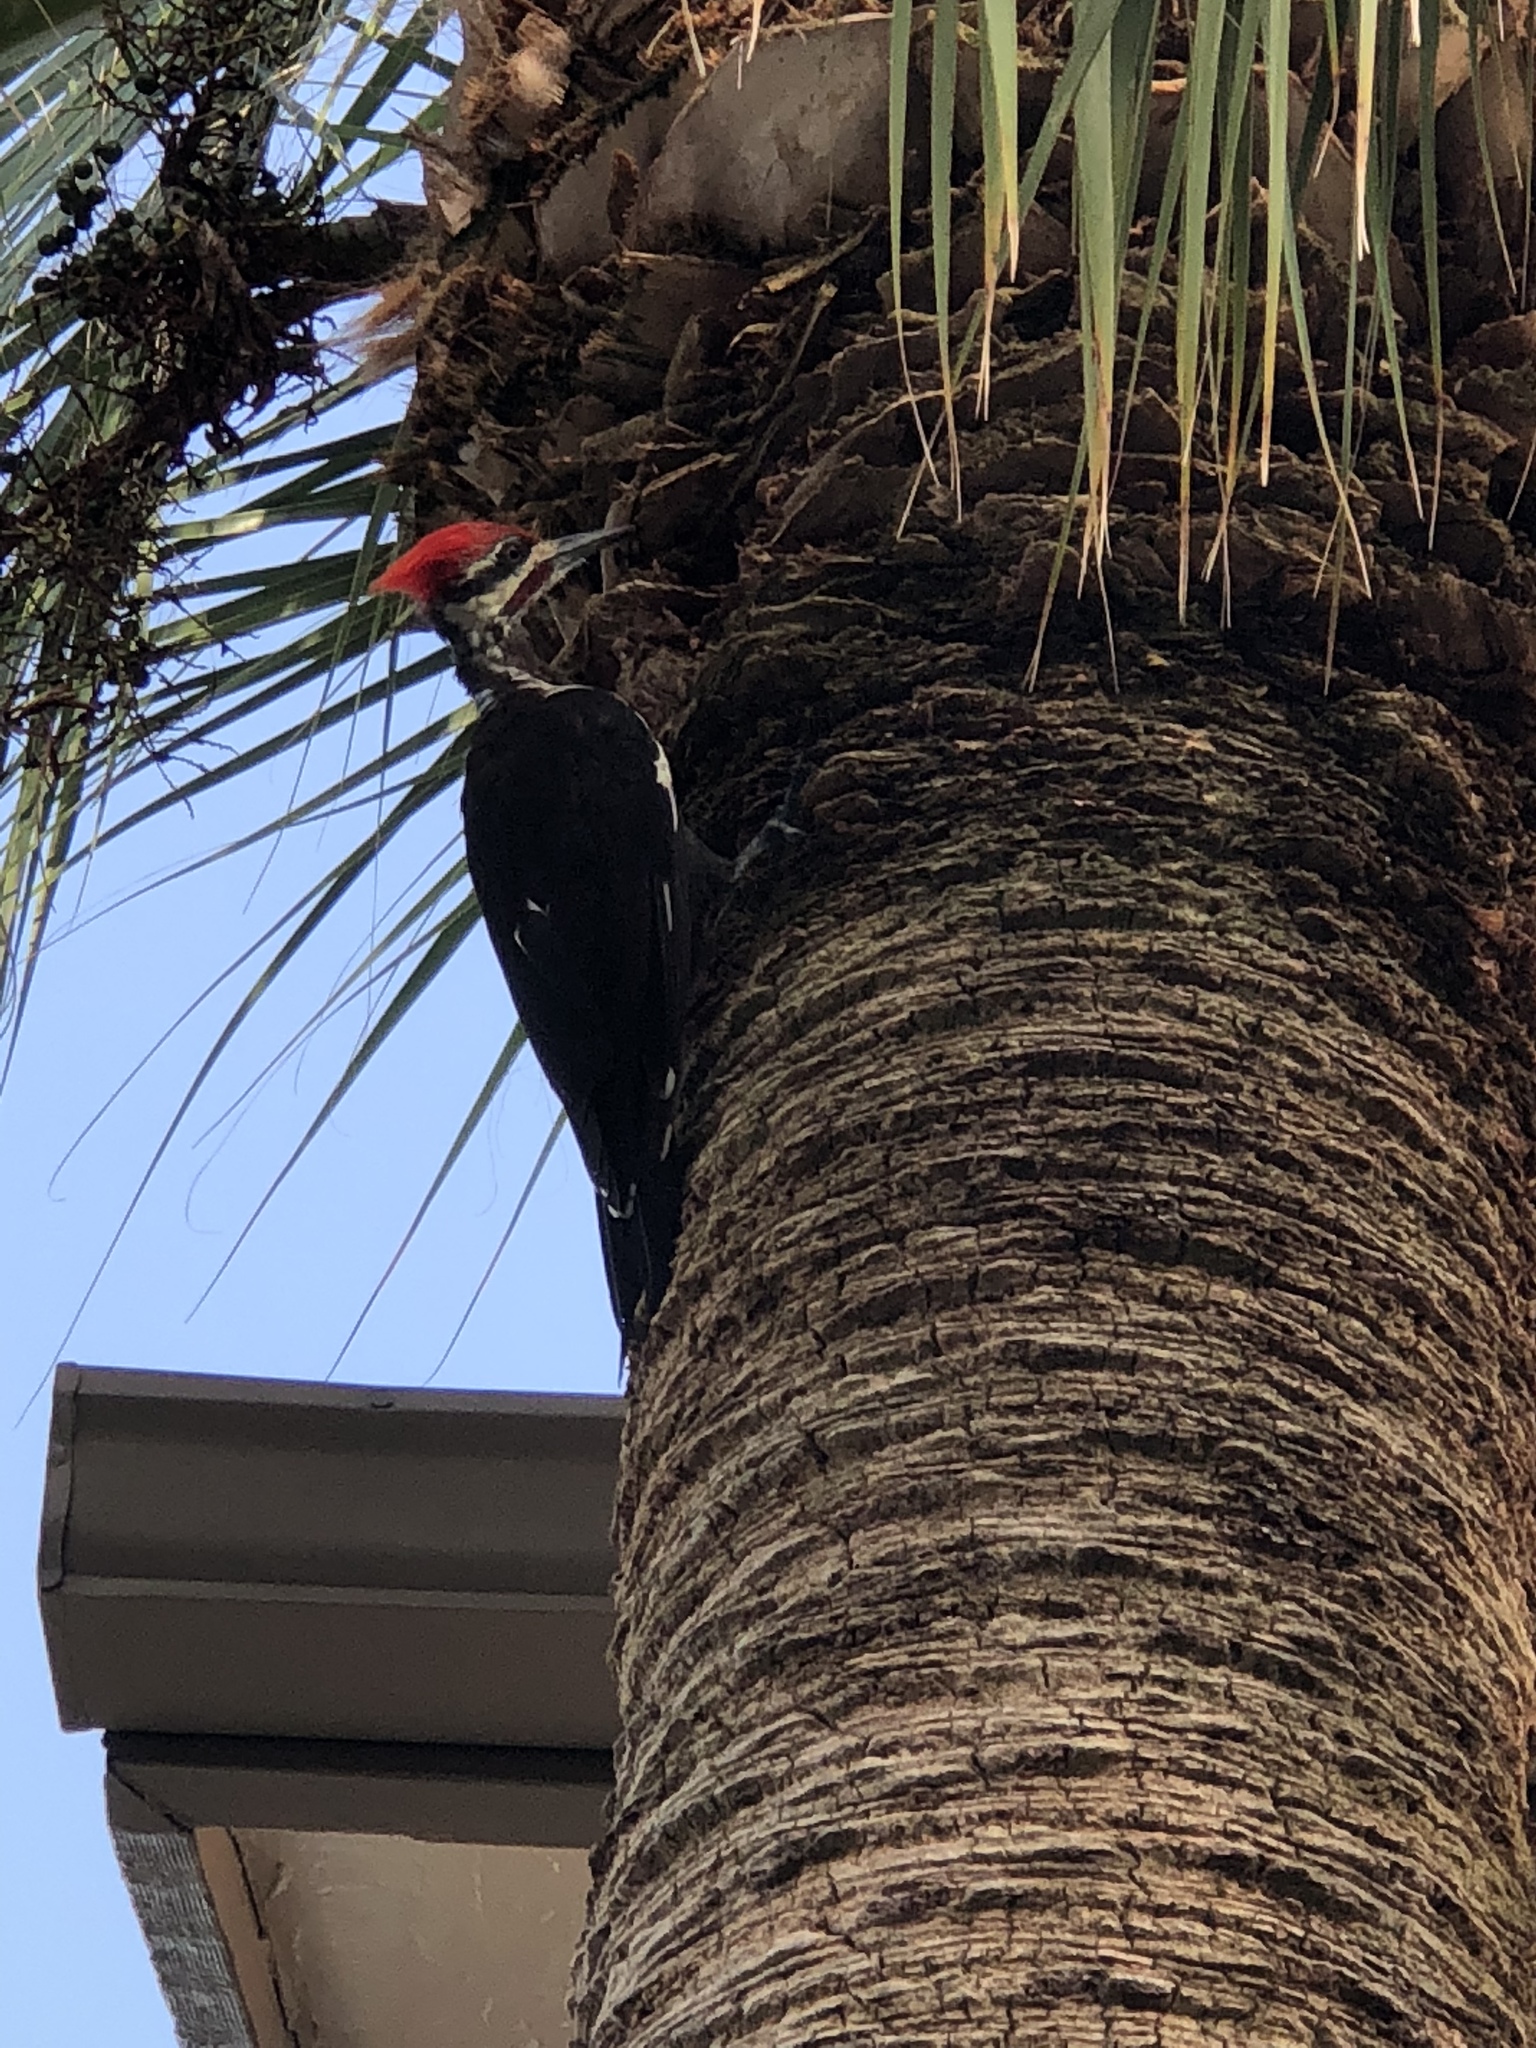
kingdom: Animalia
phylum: Chordata
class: Aves
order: Piciformes
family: Picidae
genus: Dryocopus
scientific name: Dryocopus pileatus
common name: Pileated woodpecker
